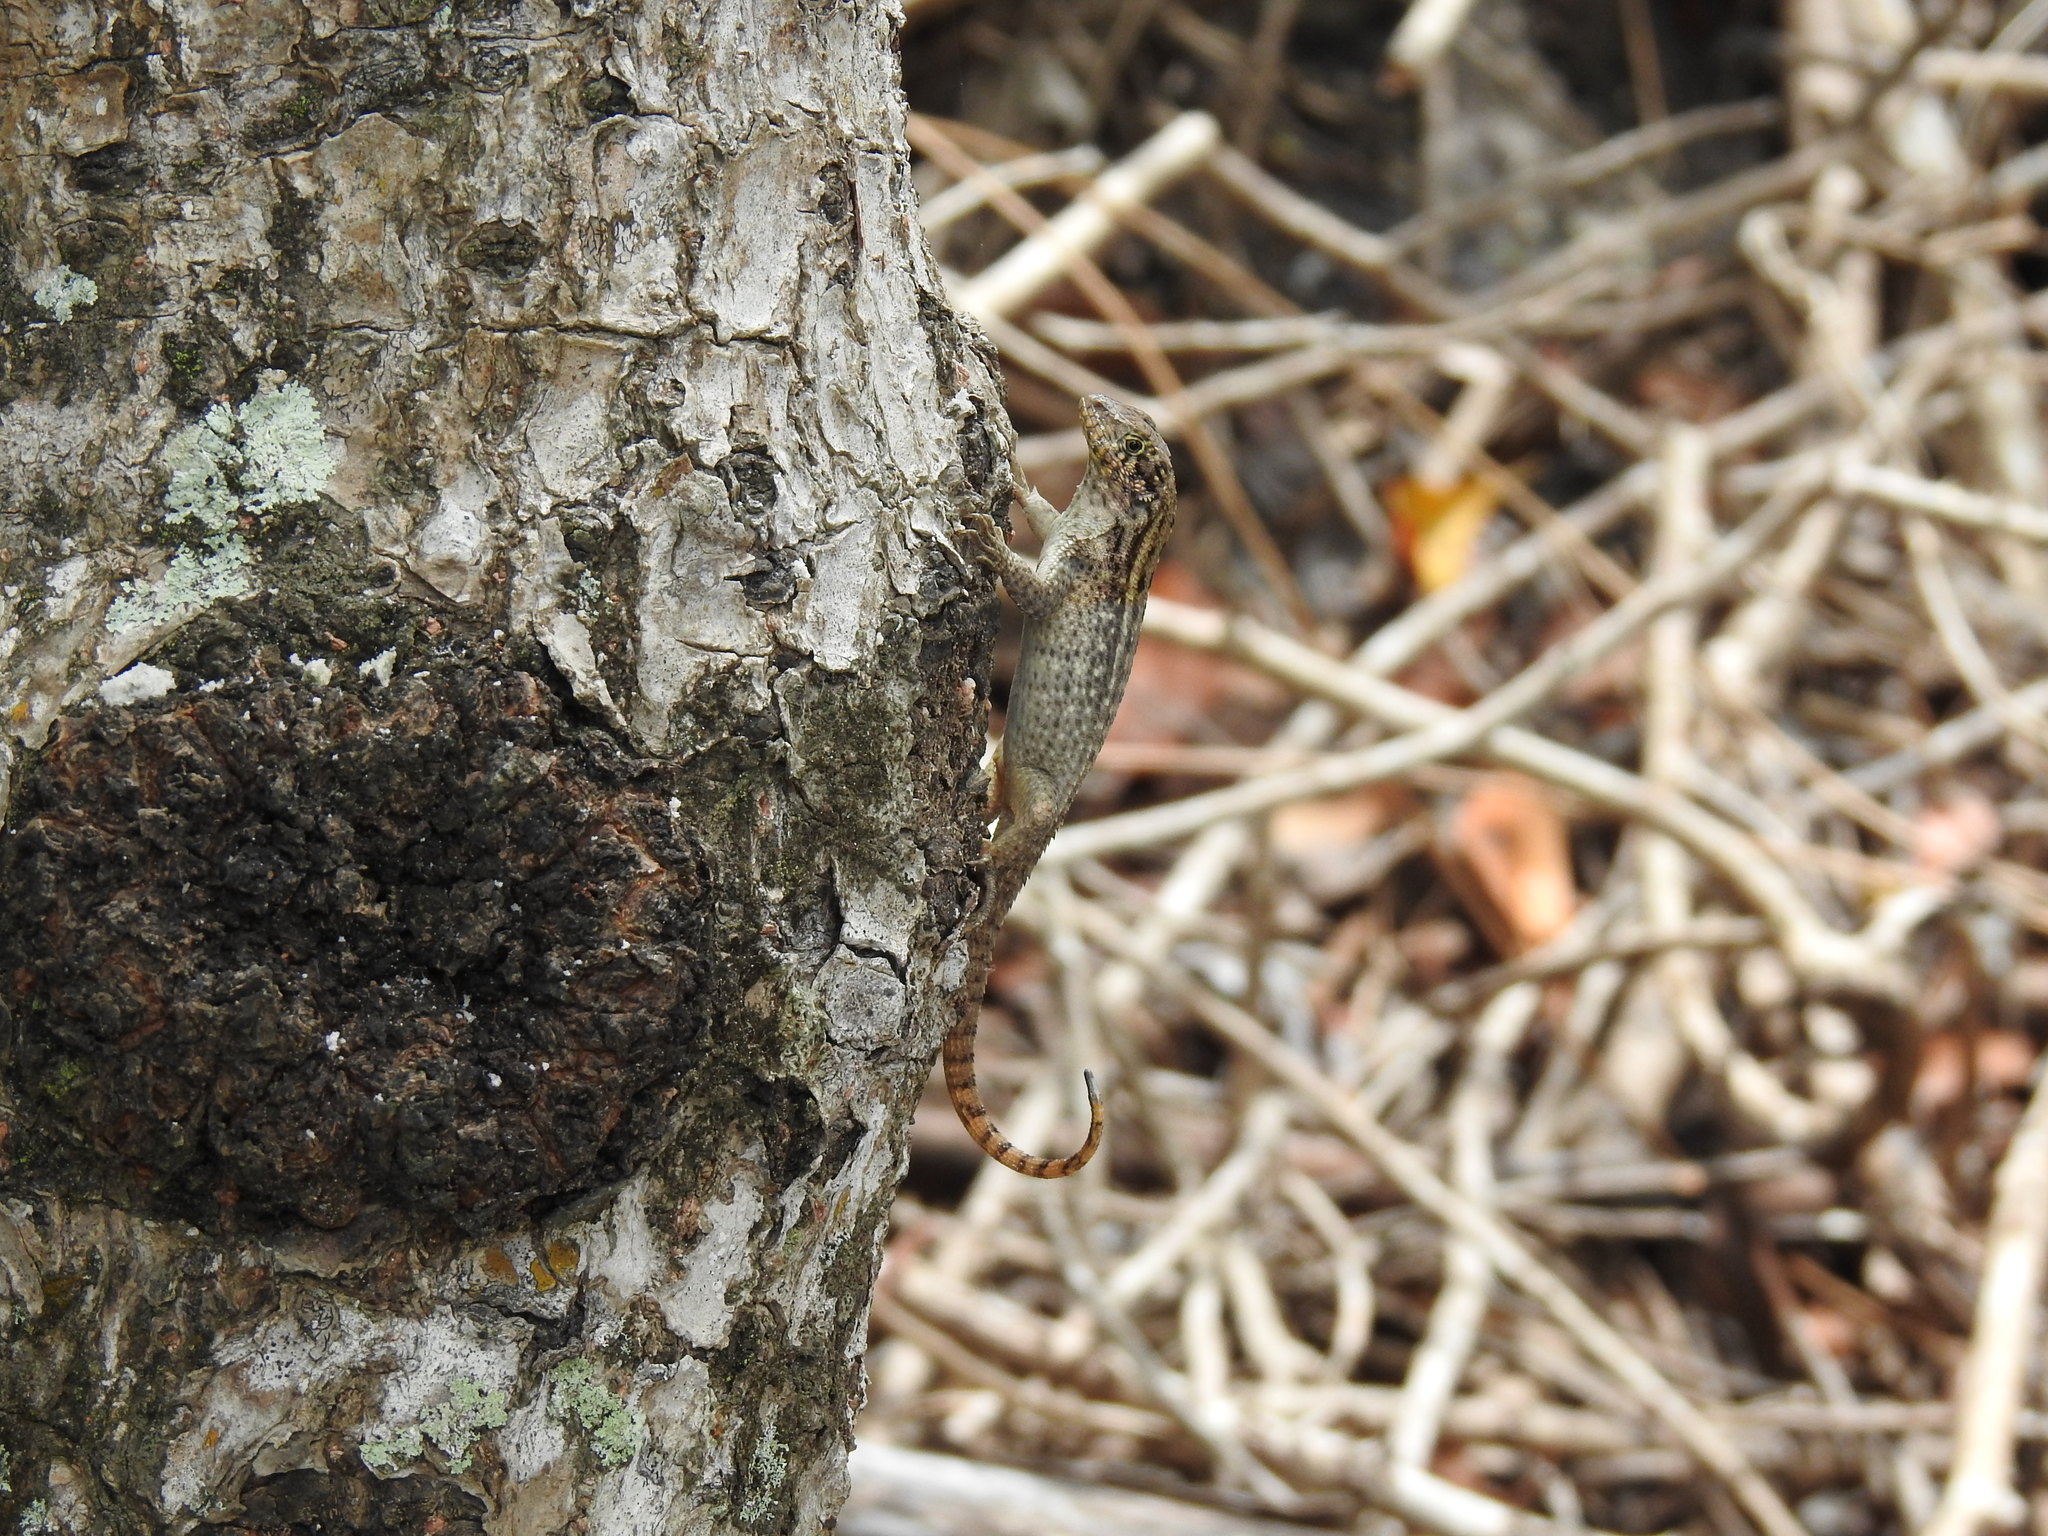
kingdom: Animalia
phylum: Chordata
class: Squamata
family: Leiocephalidae
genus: Leiocephalus
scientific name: Leiocephalus carinatus
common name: Northern curly-tailed lizard
